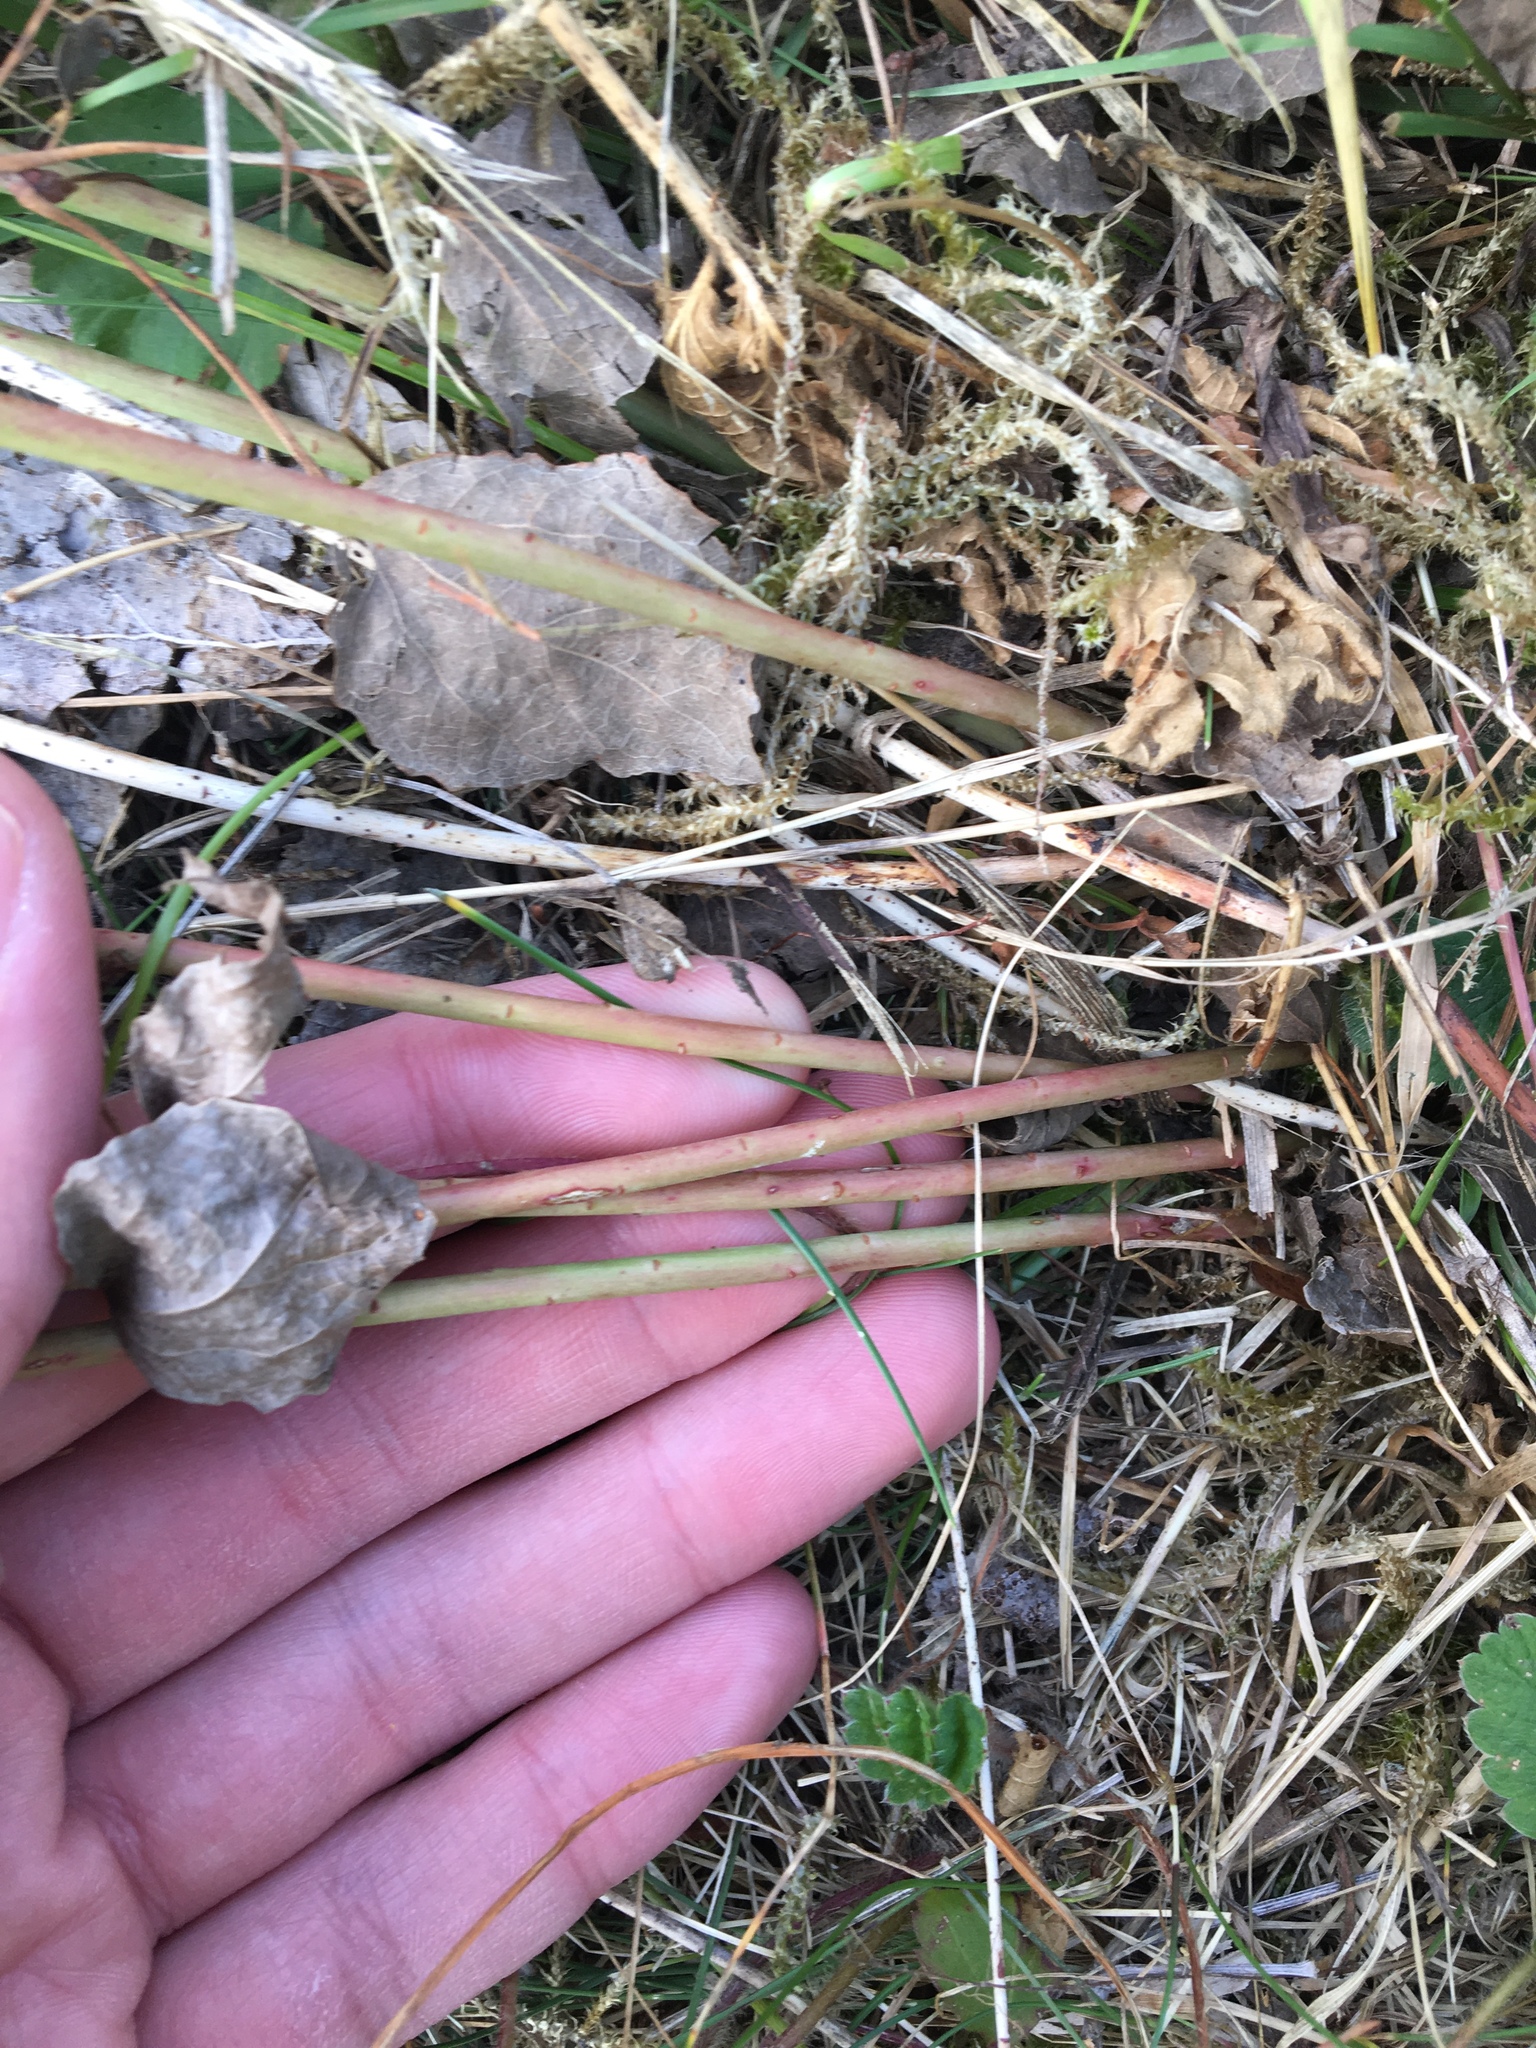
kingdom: Plantae
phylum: Tracheophyta
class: Magnoliopsida
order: Malpighiales
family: Euphorbiaceae
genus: Euphorbia
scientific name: Euphorbia cyparissias
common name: Cypress spurge
